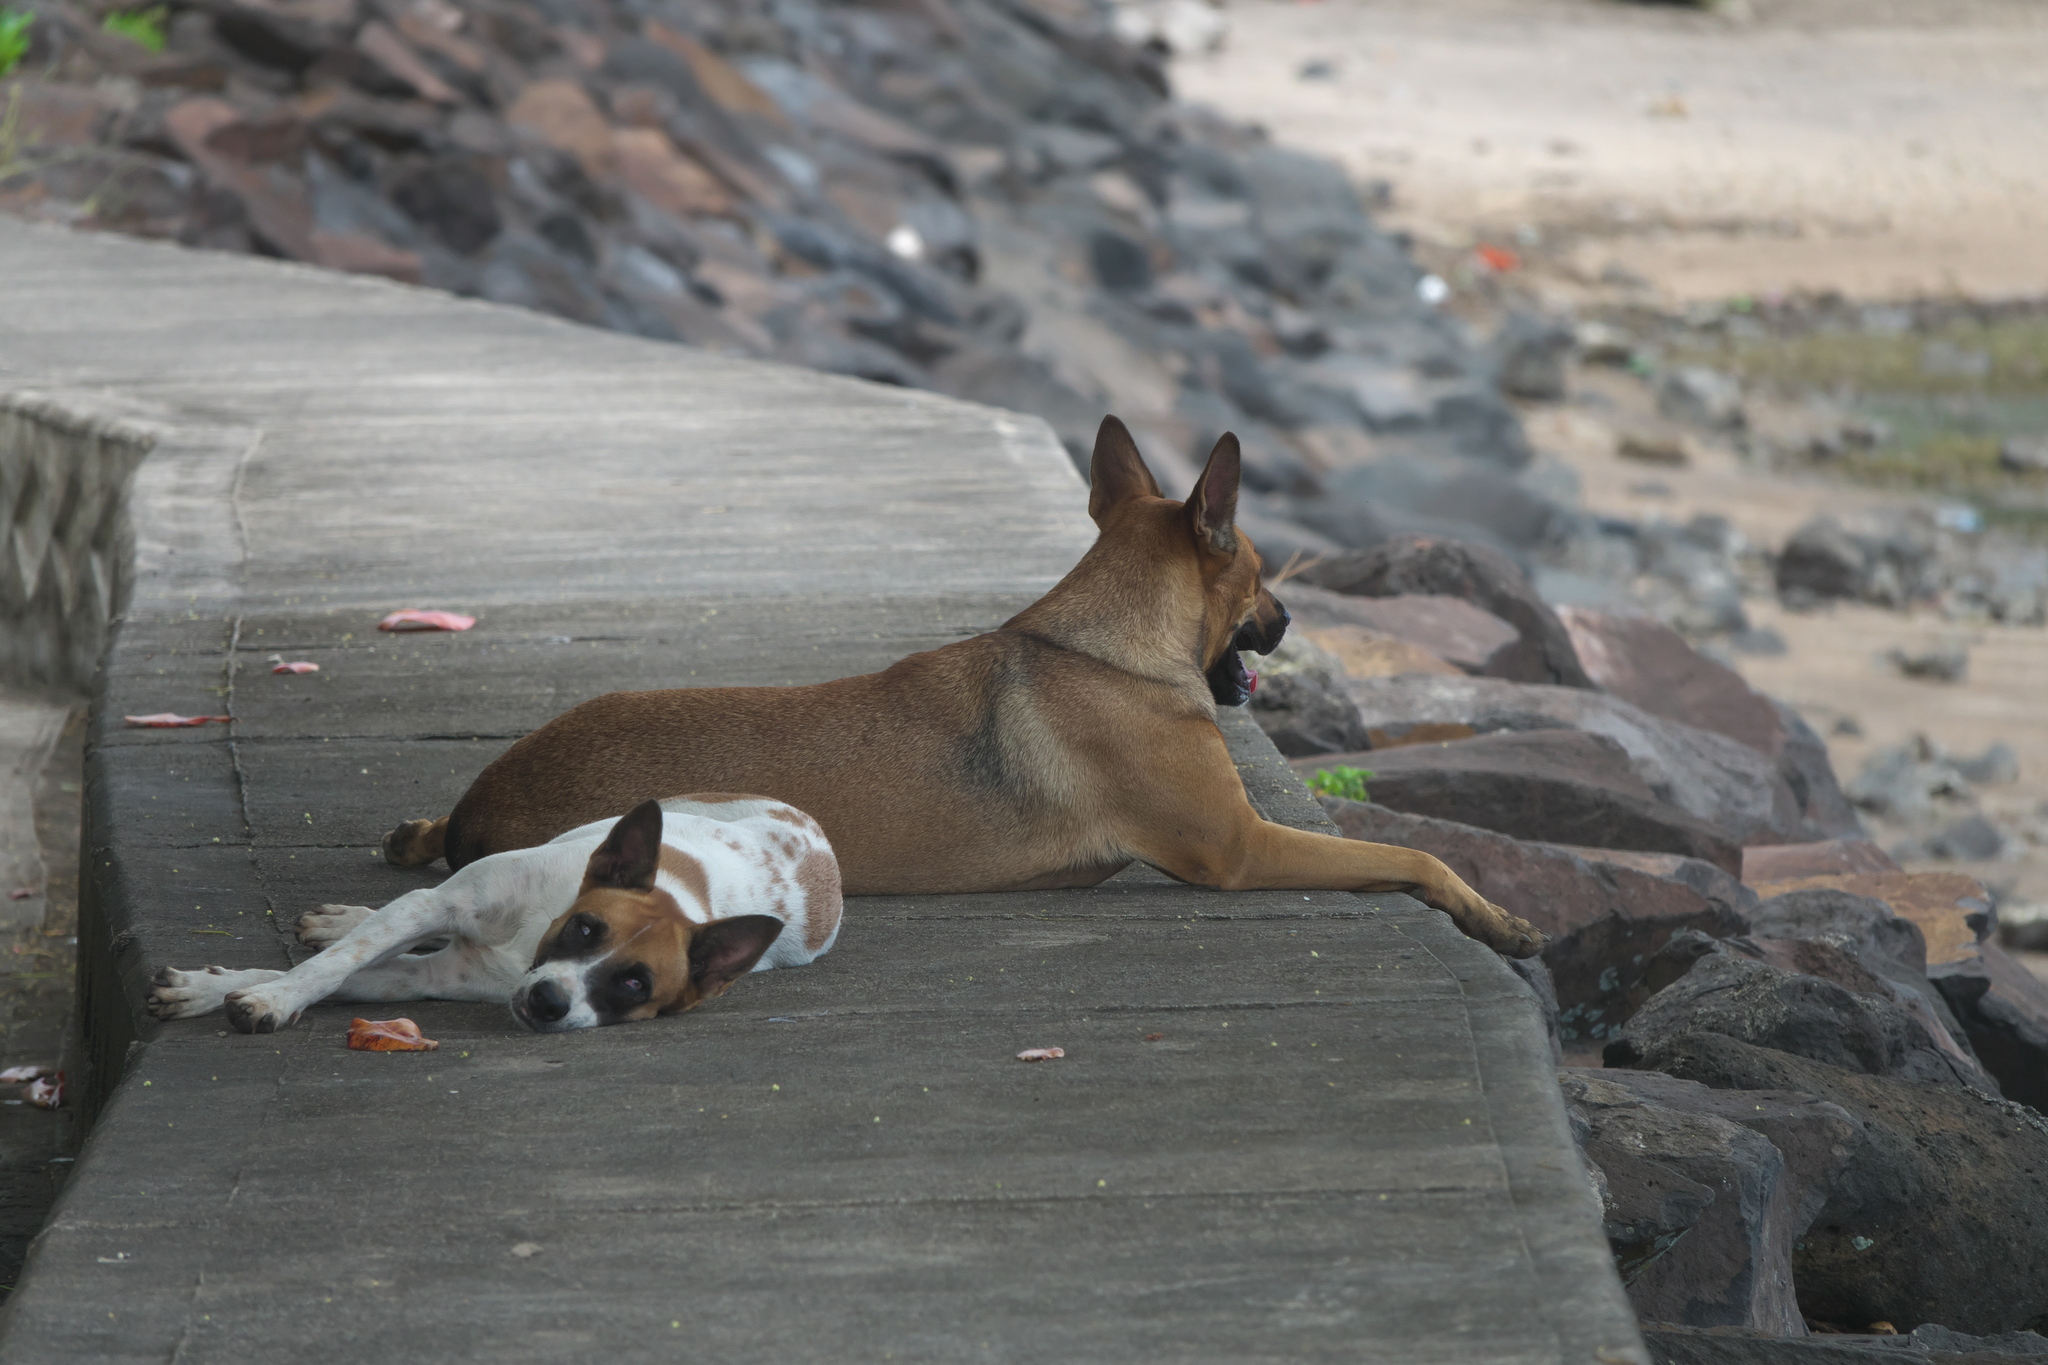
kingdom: Animalia
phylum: Chordata
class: Mammalia
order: Carnivora
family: Canidae
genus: Canis
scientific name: Canis lupus
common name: Gray wolf
